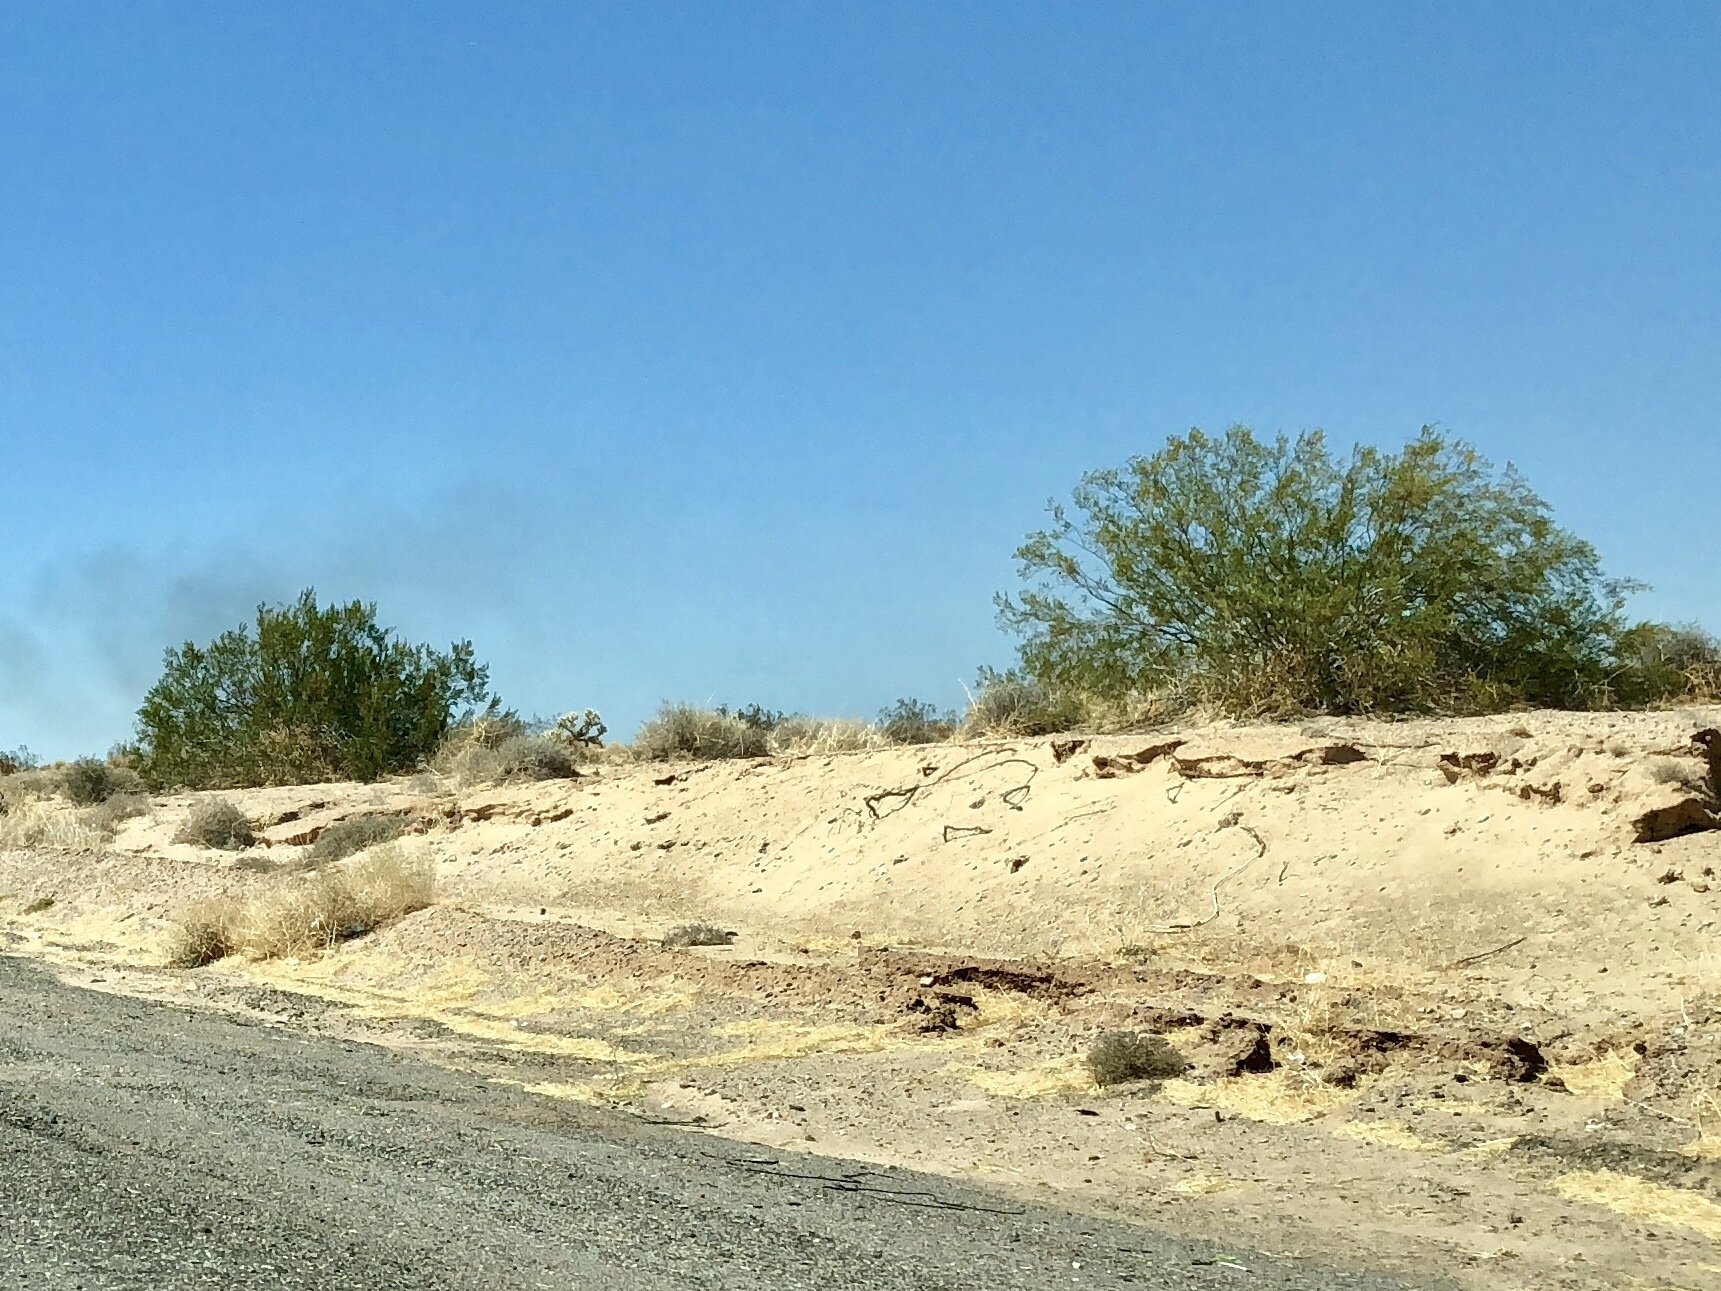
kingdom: Plantae
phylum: Tracheophyta
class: Magnoliopsida
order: Zygophyllales
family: Zygophyllaceae
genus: Larrea
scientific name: Larrea tridentata
